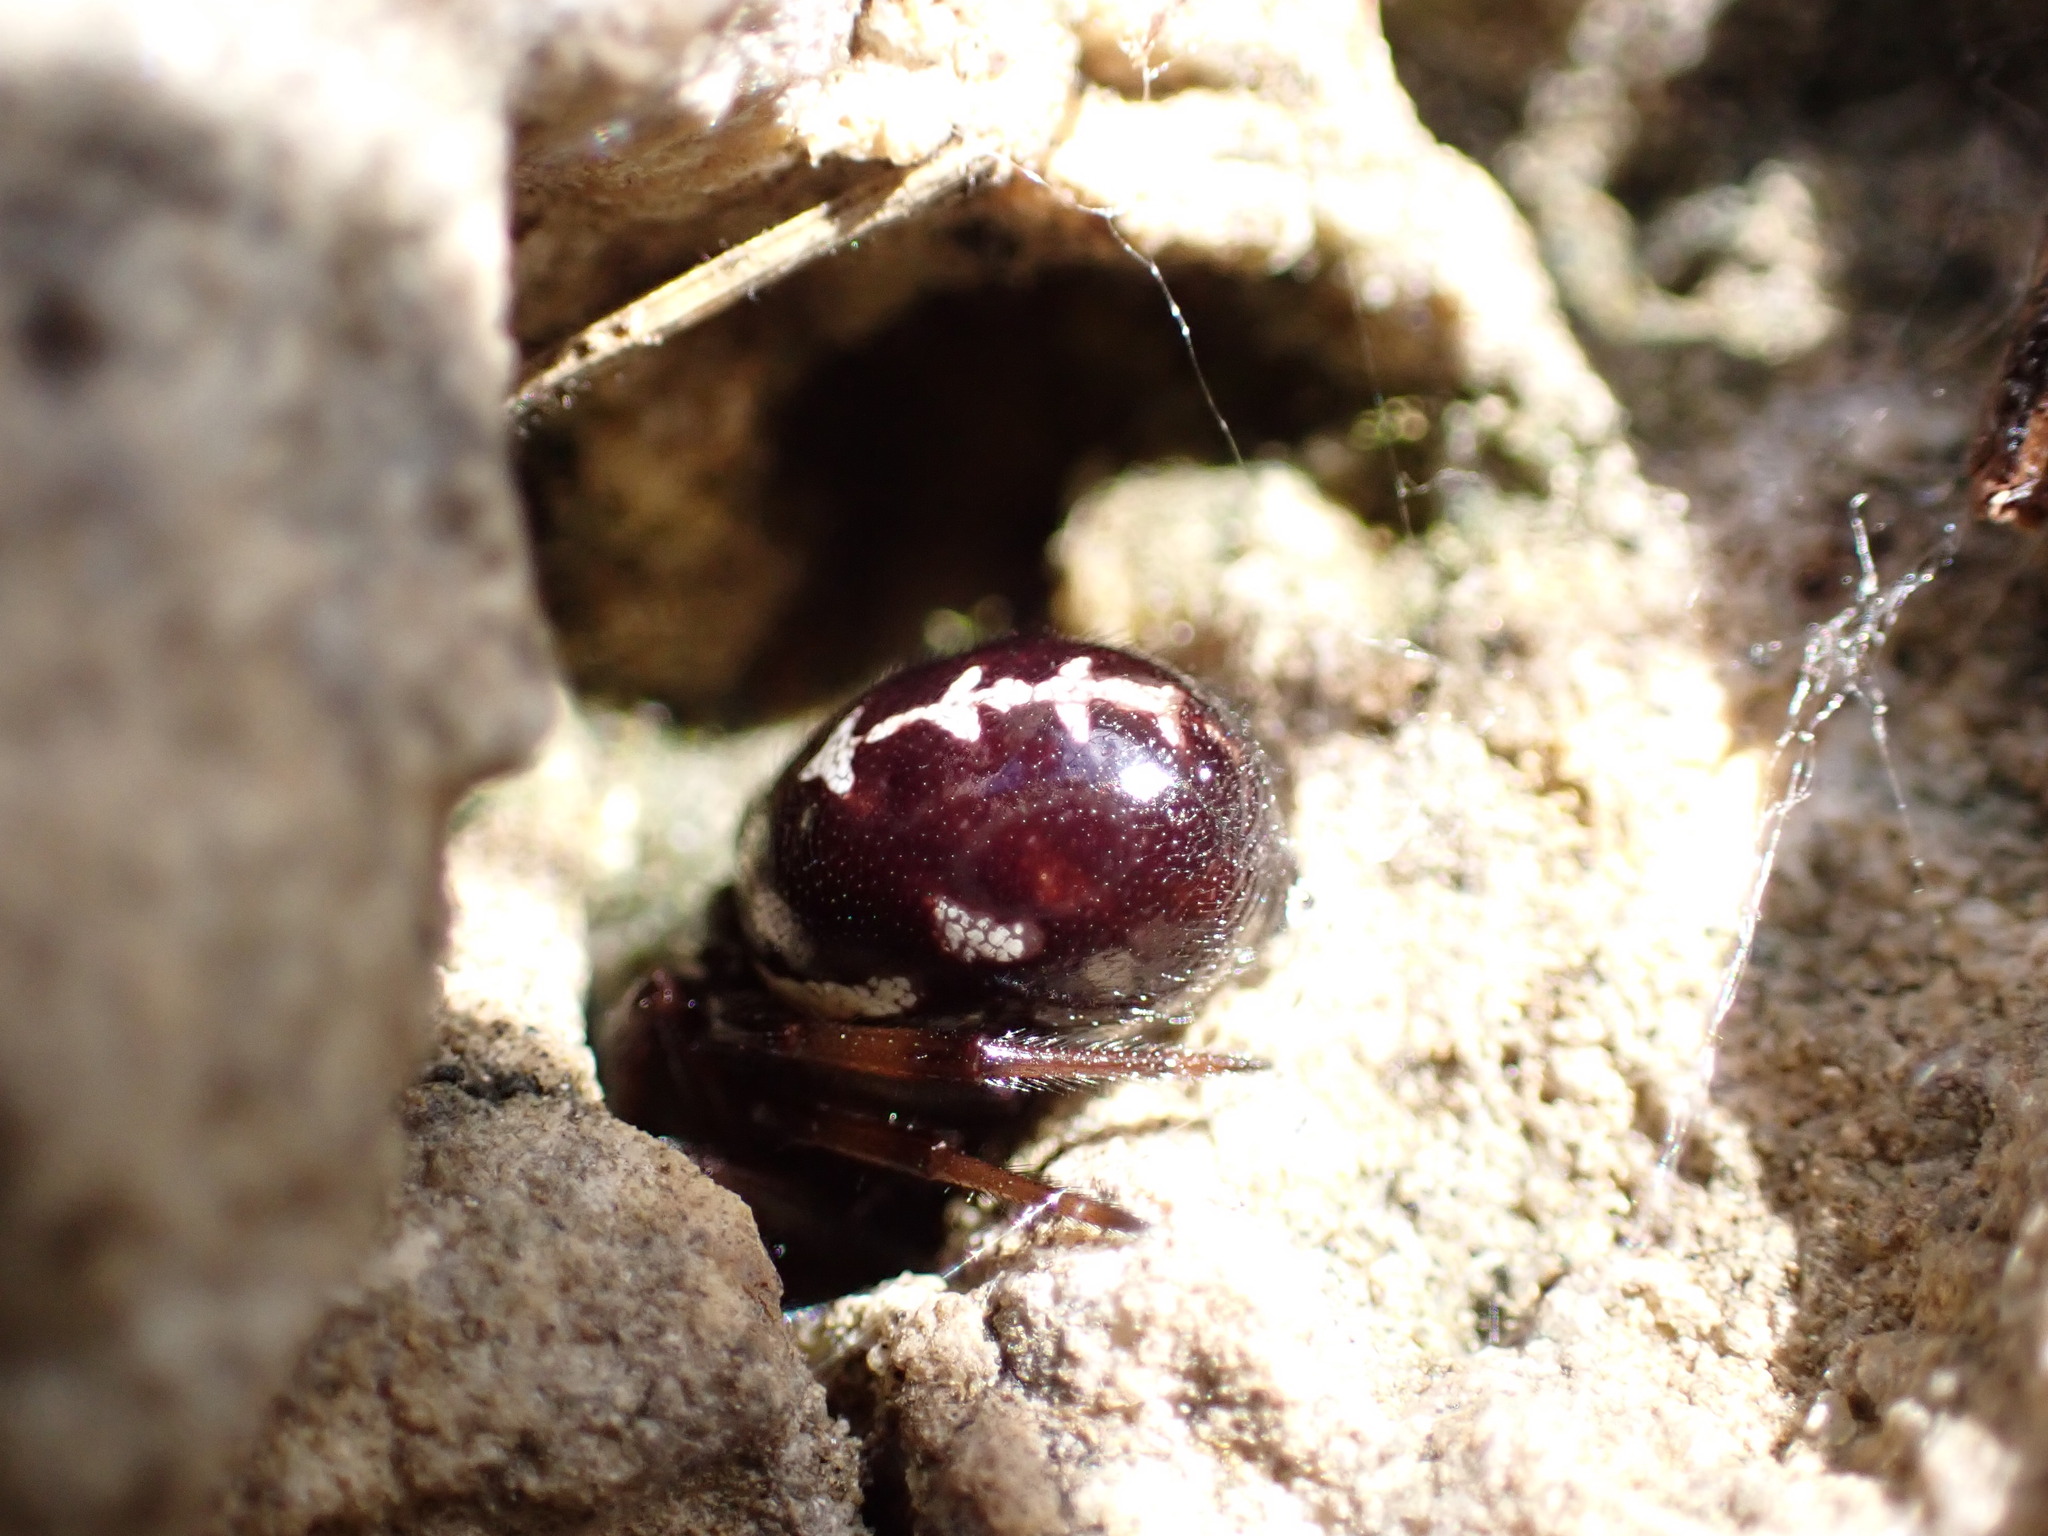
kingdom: Animalia
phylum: Arthropoda
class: Arachnida
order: Araneae
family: Theridiidae
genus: Steatoda
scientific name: Steatoda paykulliana
